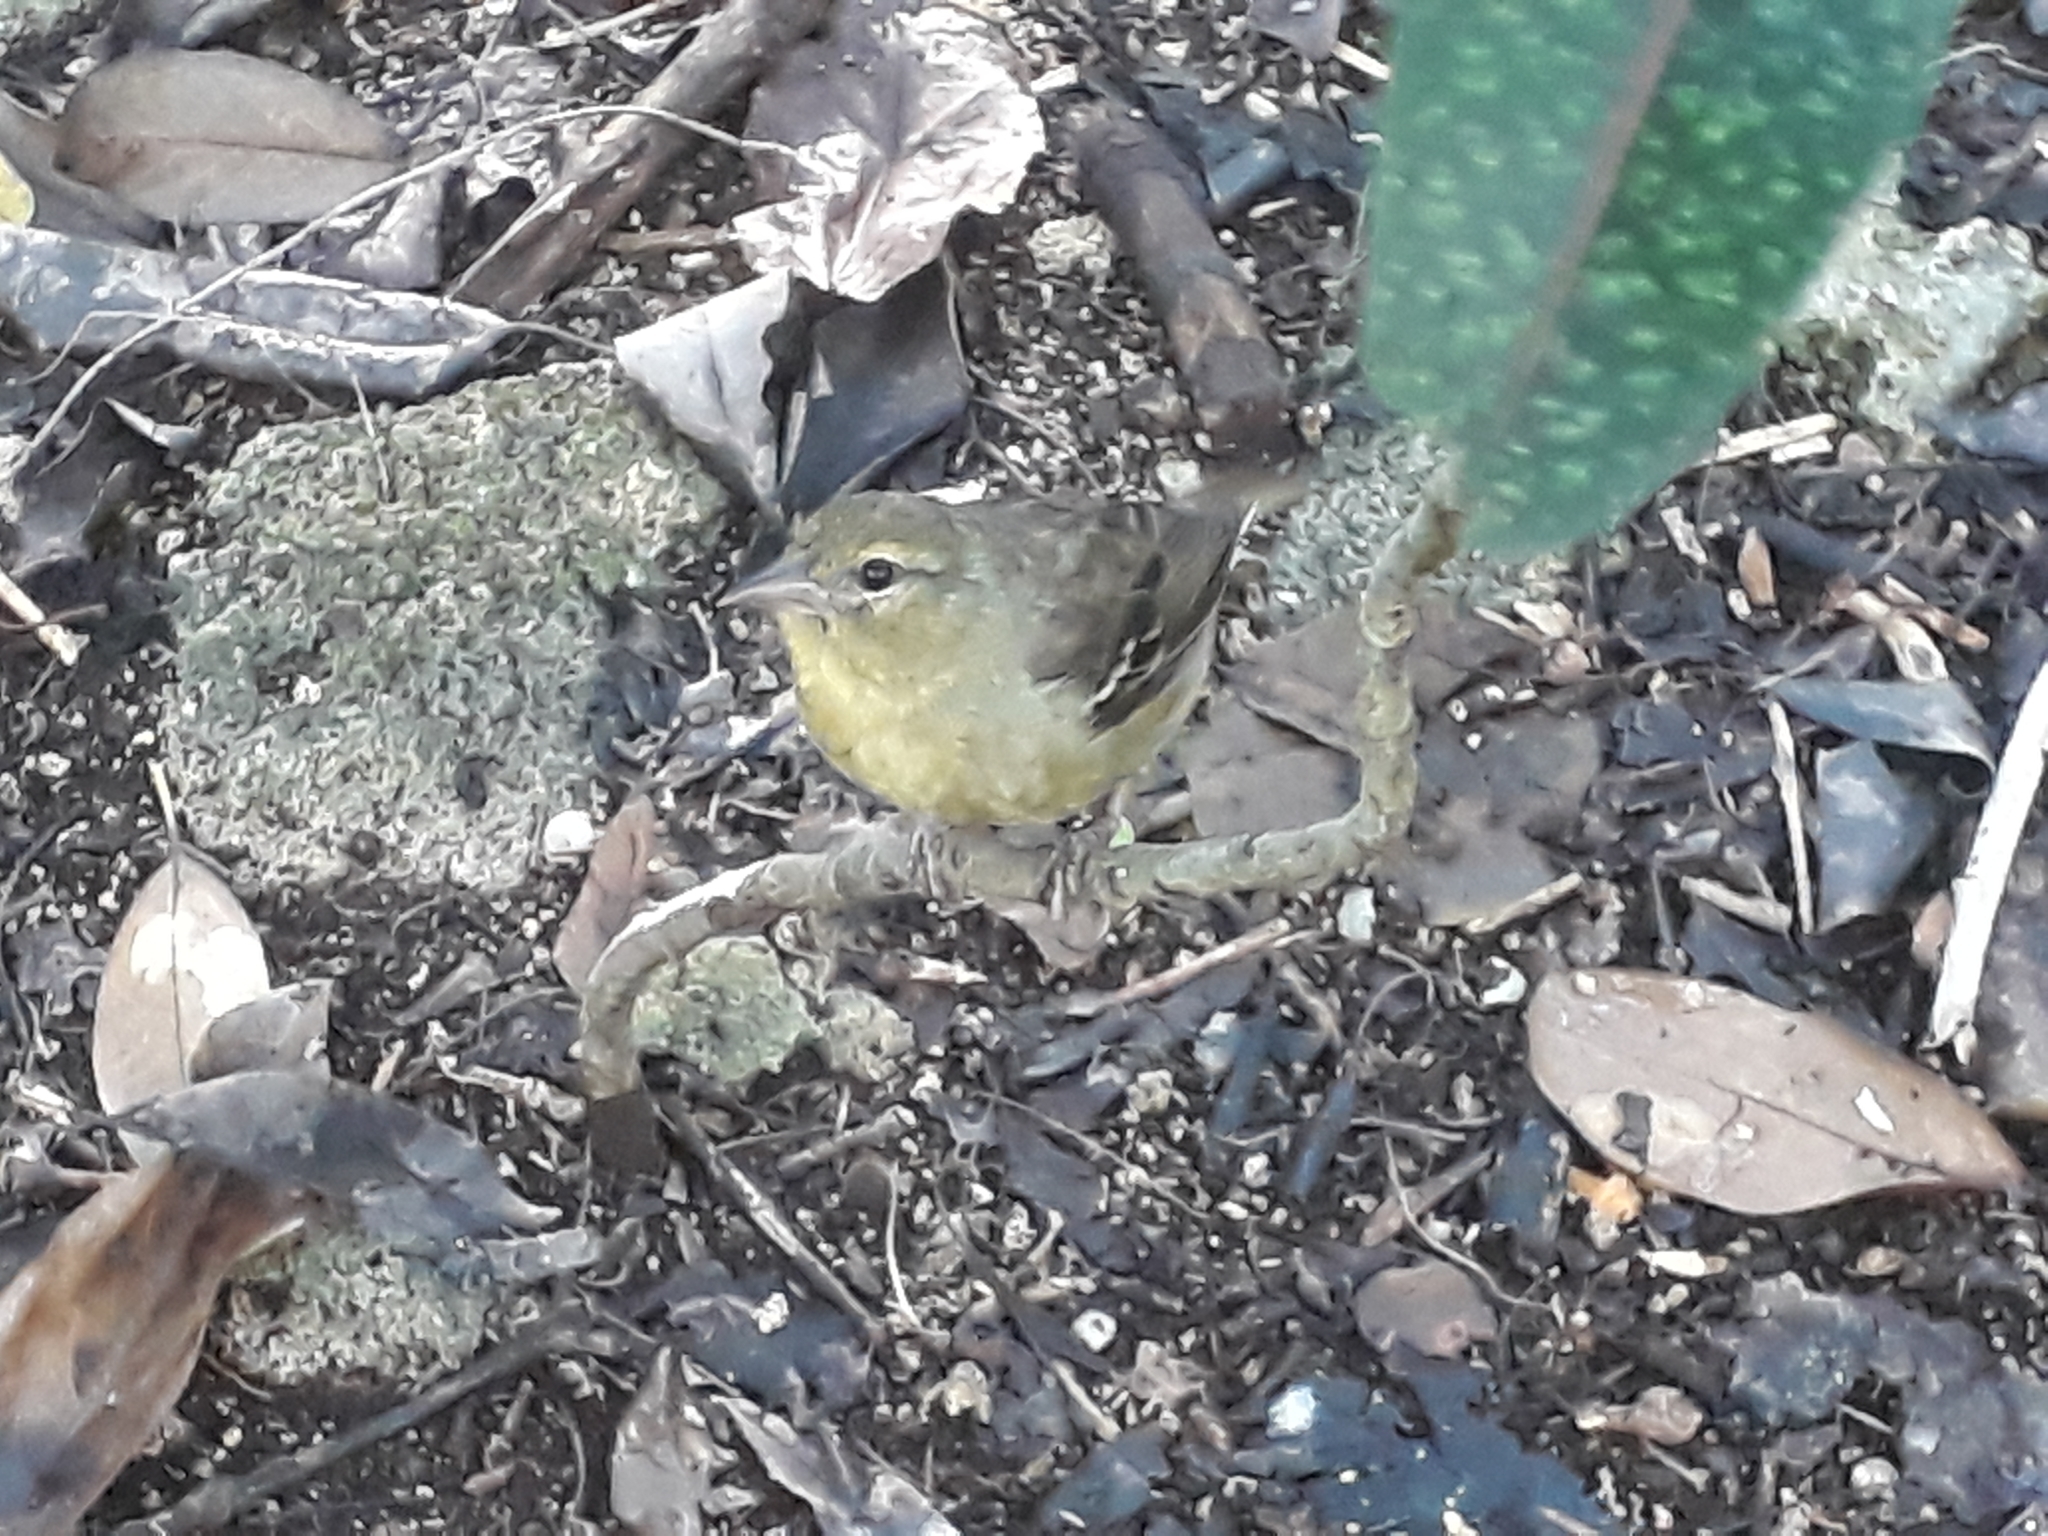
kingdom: Animalia
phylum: Chordata
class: Aves
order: Passeriformes
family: Ploceidae
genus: Foudia
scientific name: Foudia rubra
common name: Mauritius fody
